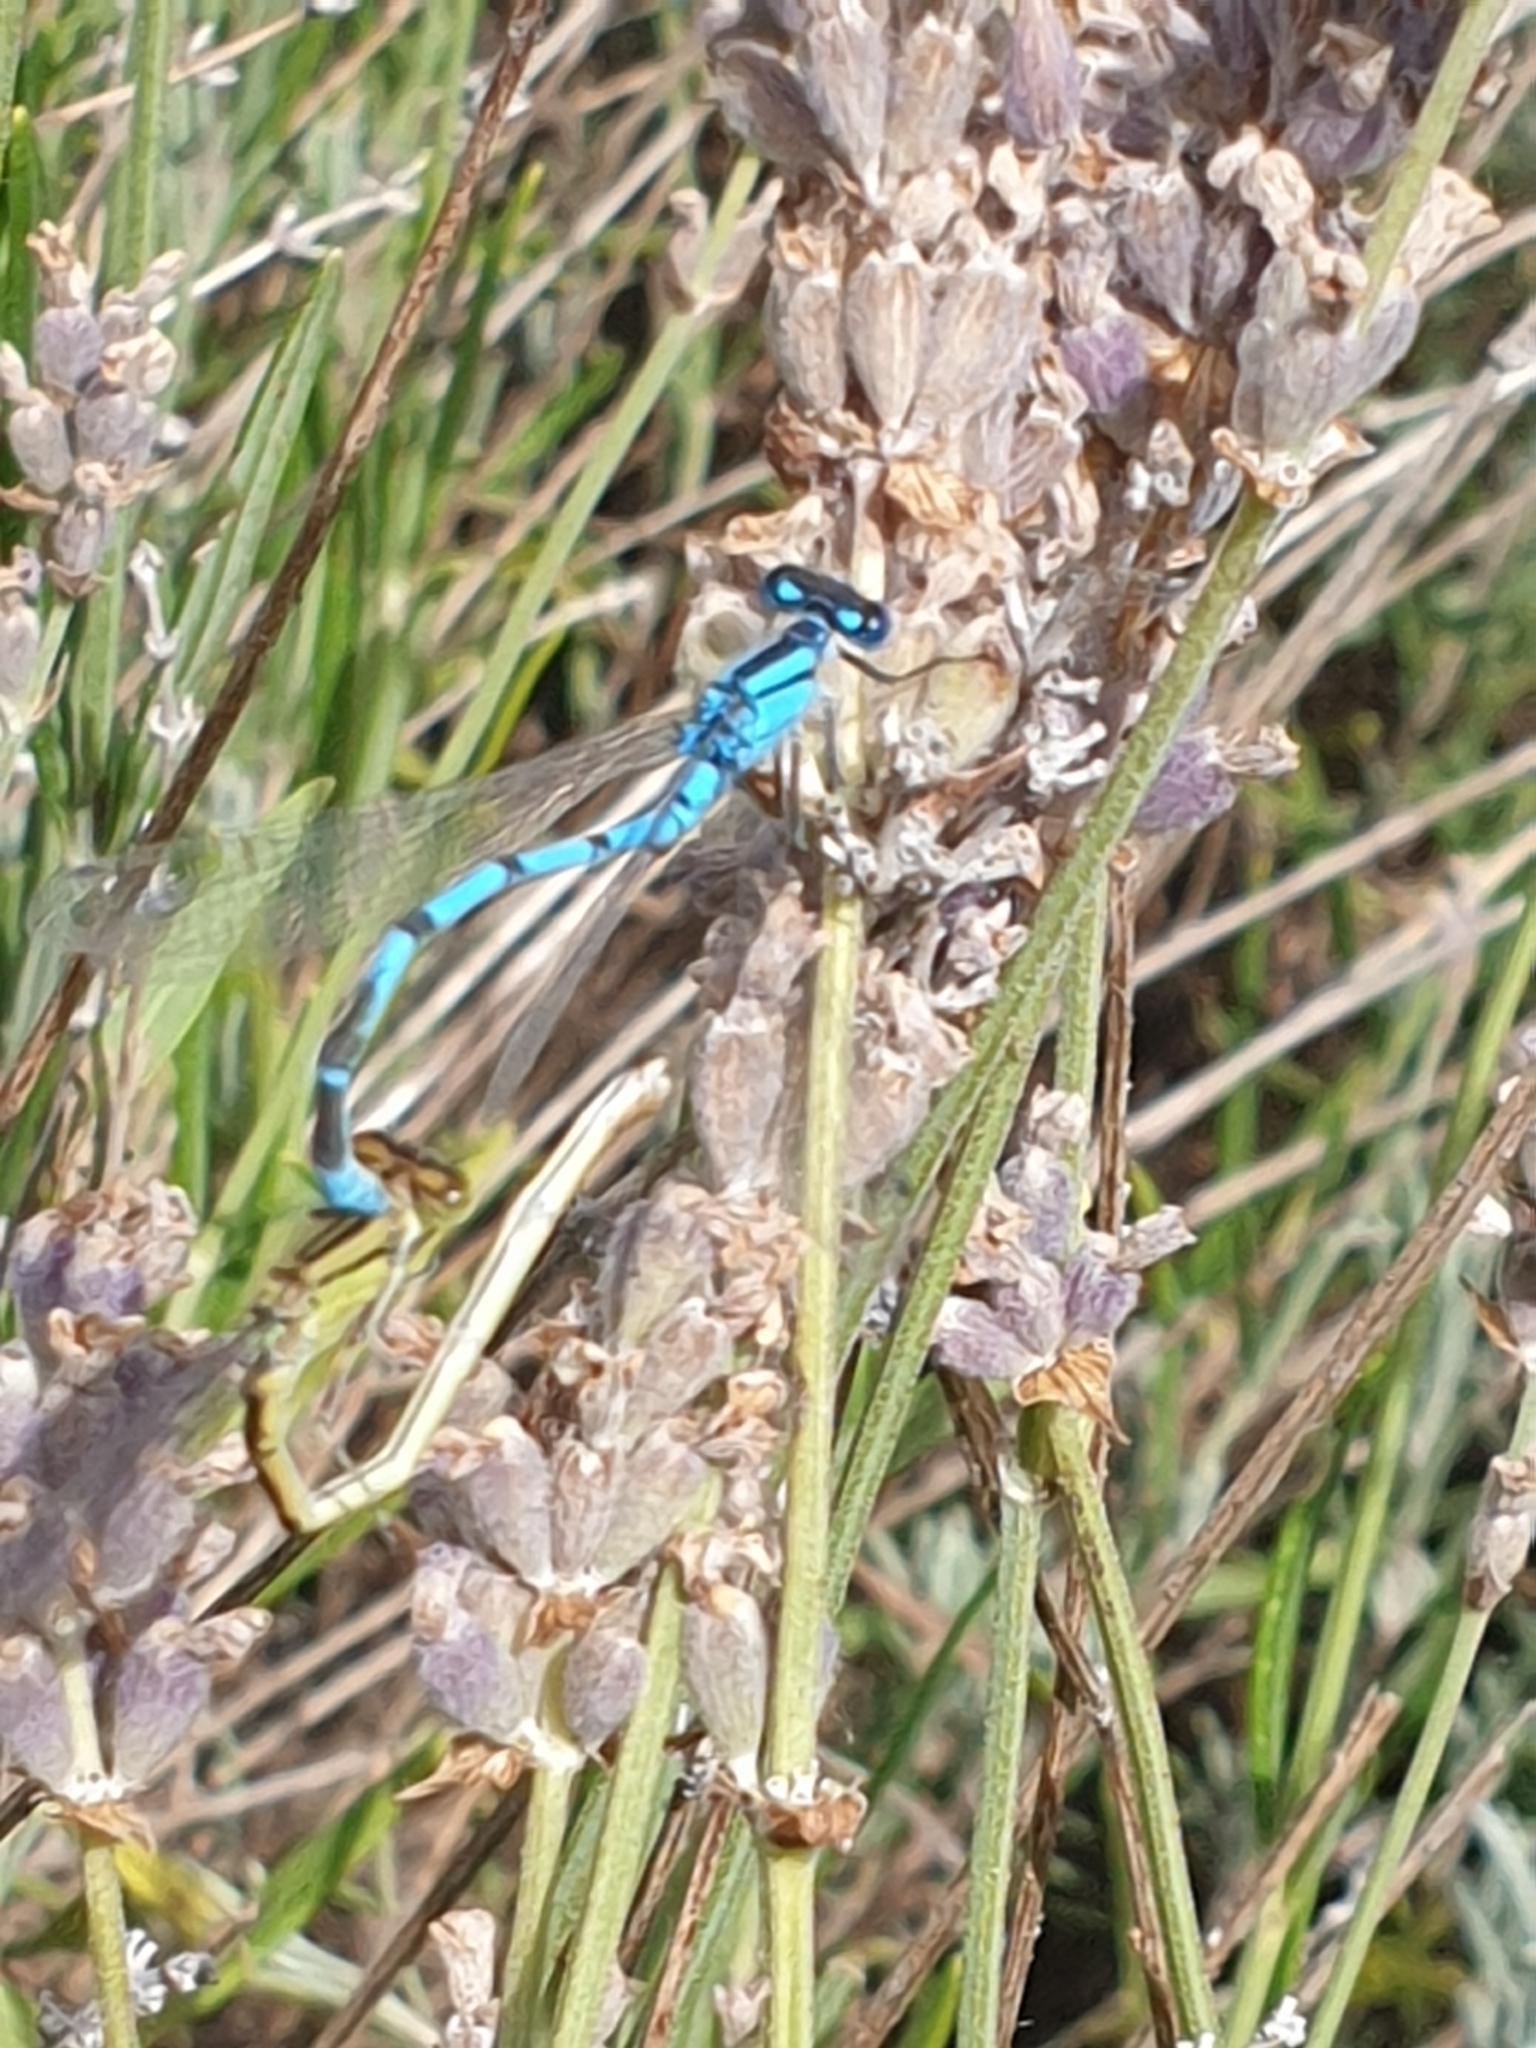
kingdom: Animalia
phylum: Arthropoda
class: Insecta
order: Odonata
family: Coenagrionidae
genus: Enallagma
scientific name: Enallagma cyathigerum
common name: Common blue damselfly
